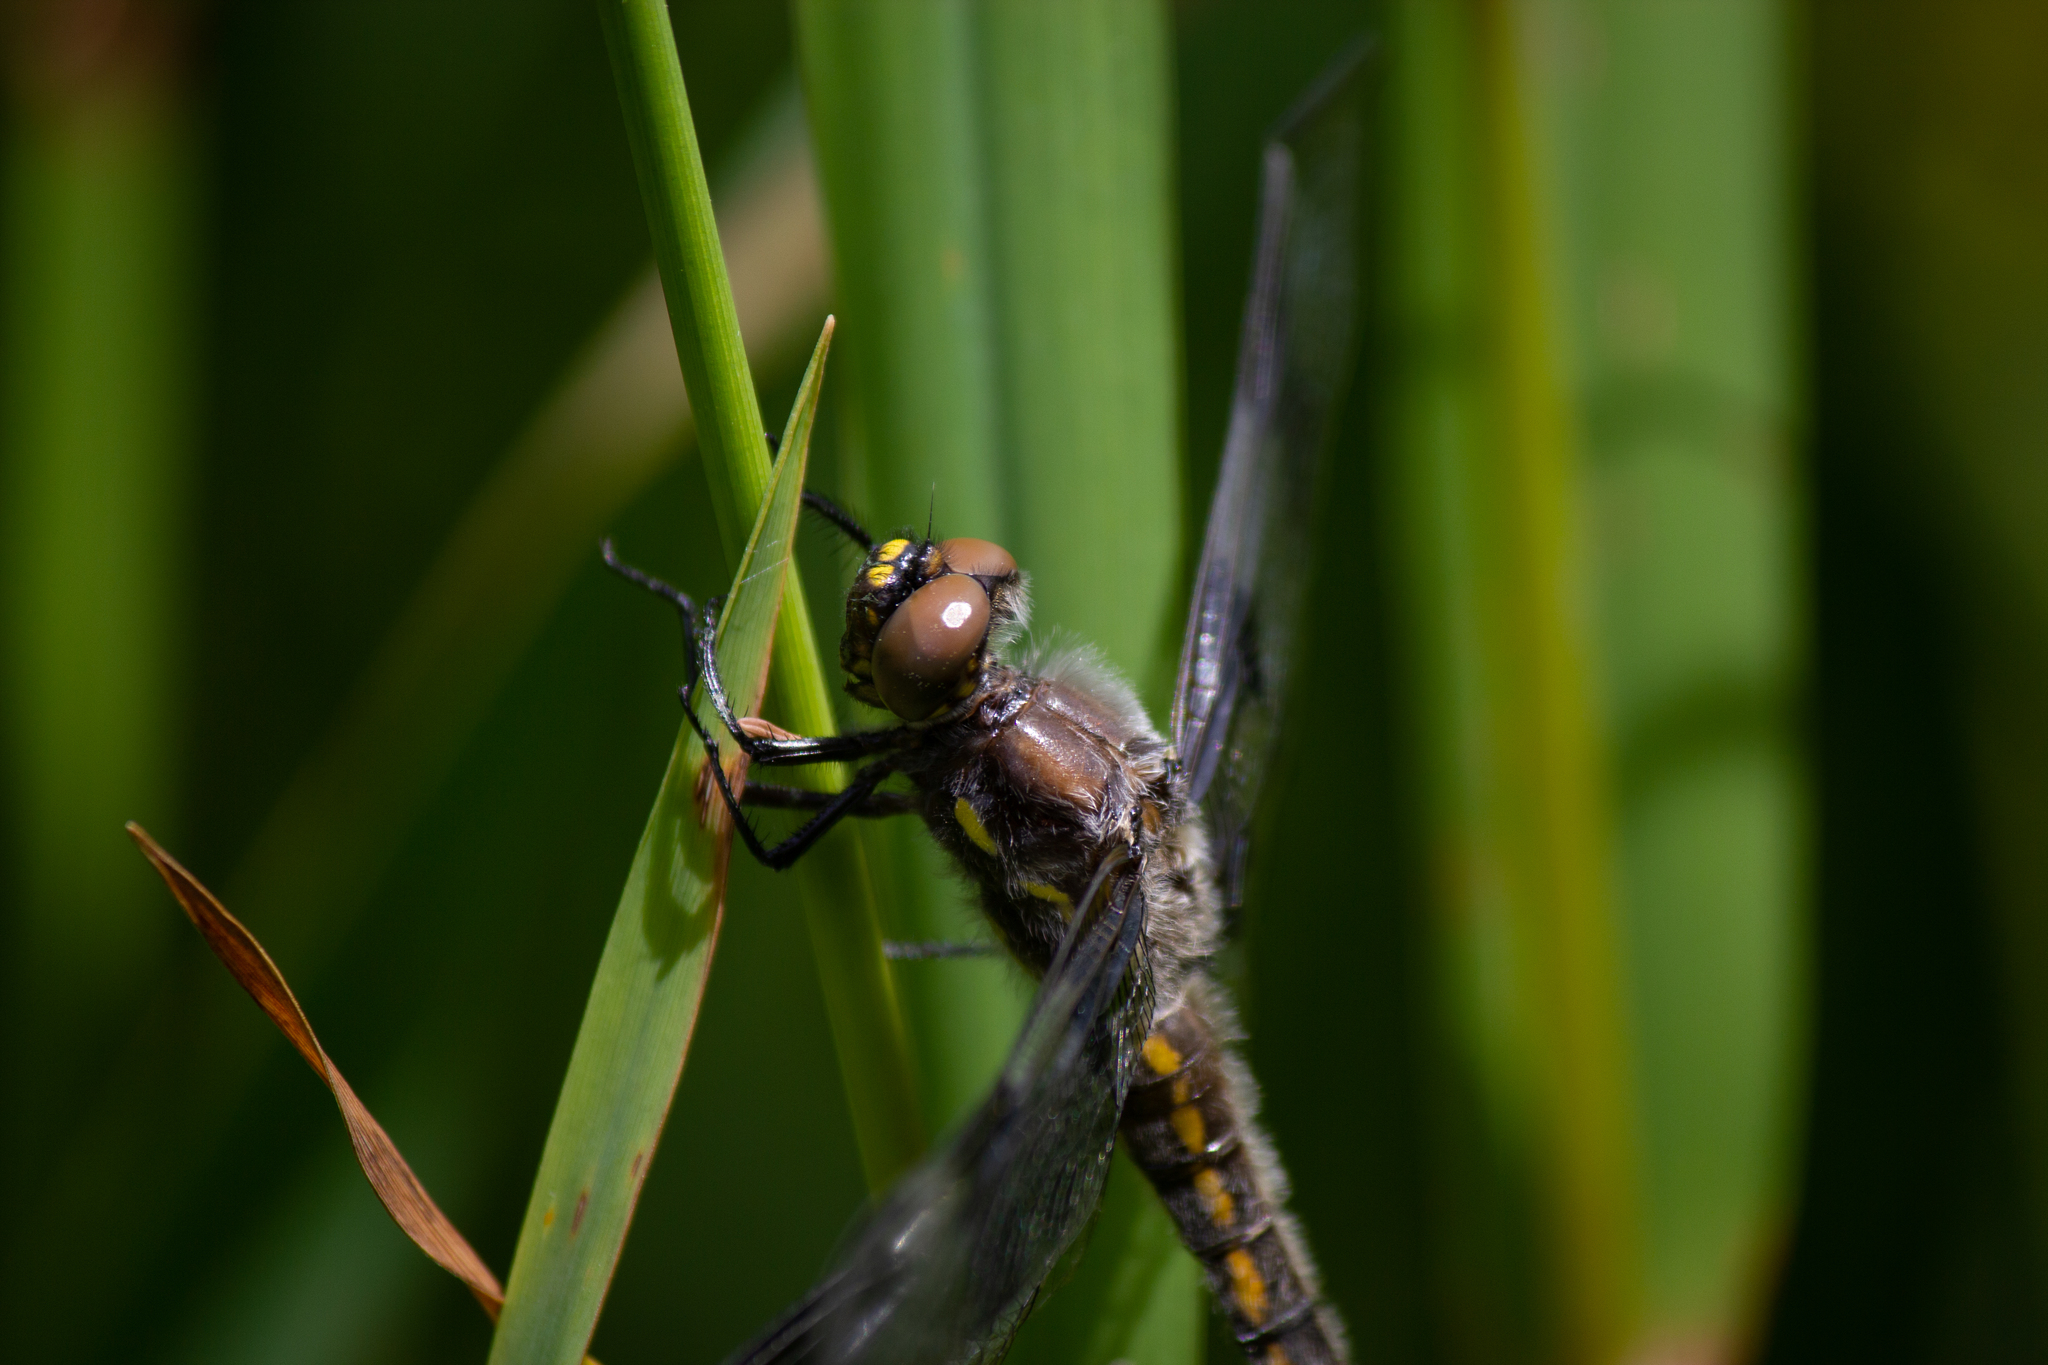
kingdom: Animalia
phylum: Arthropoda
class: Insecta
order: Odonata
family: Libellulidae
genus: Libellula
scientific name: Libellula forensis
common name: Eight-spotted skimmer
